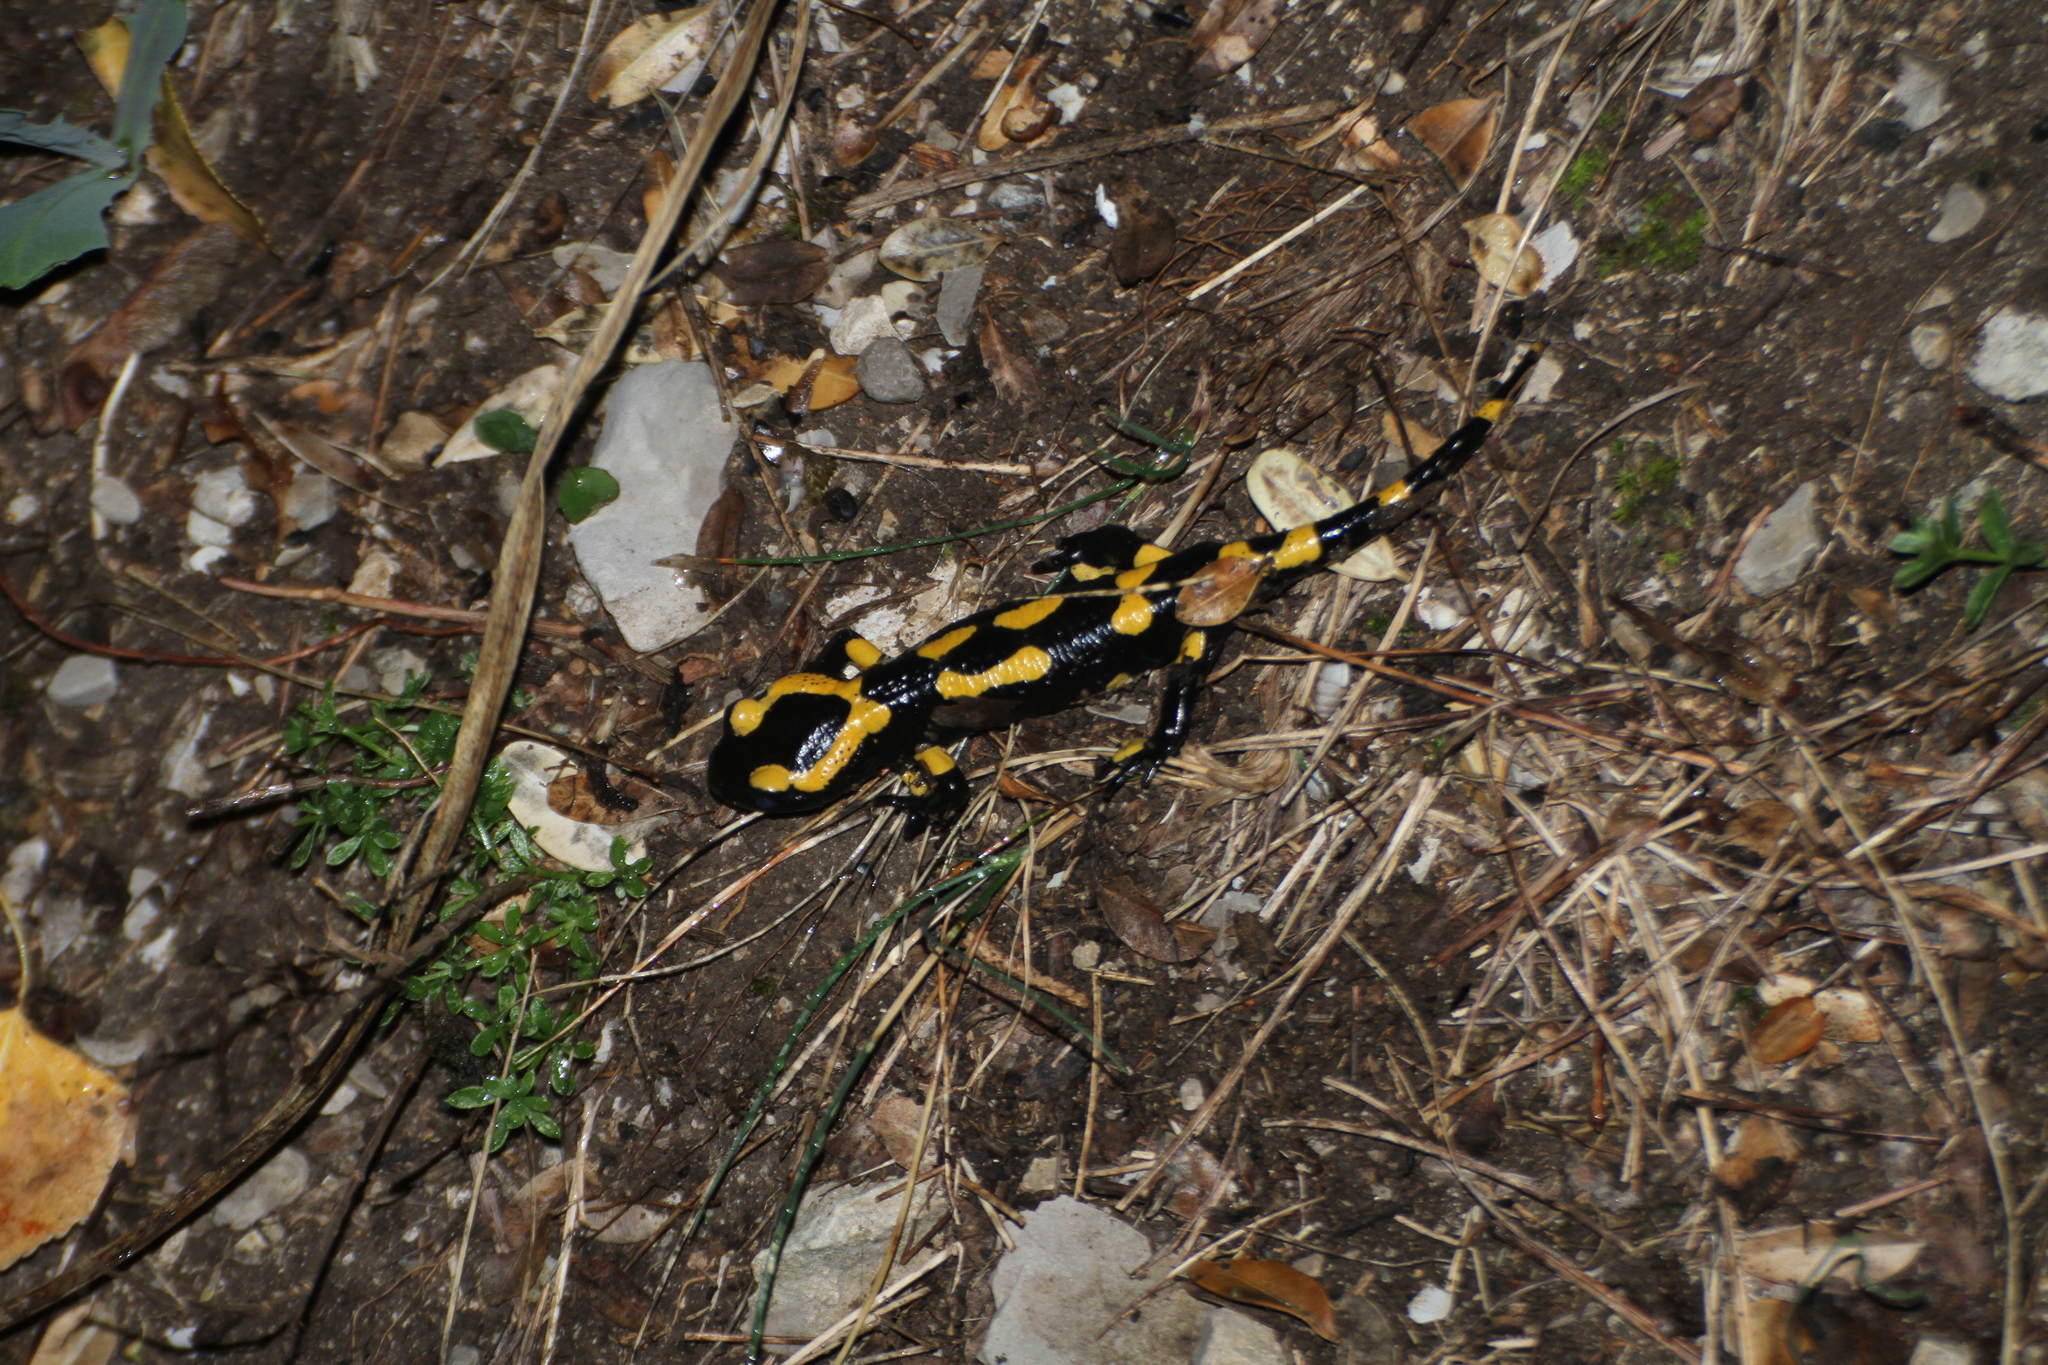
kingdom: Animalia
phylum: Chordata
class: Amphibia
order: Caudata
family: Salamandridae
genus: Salamandra
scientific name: Salamandra salamandra
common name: Fire salamander
